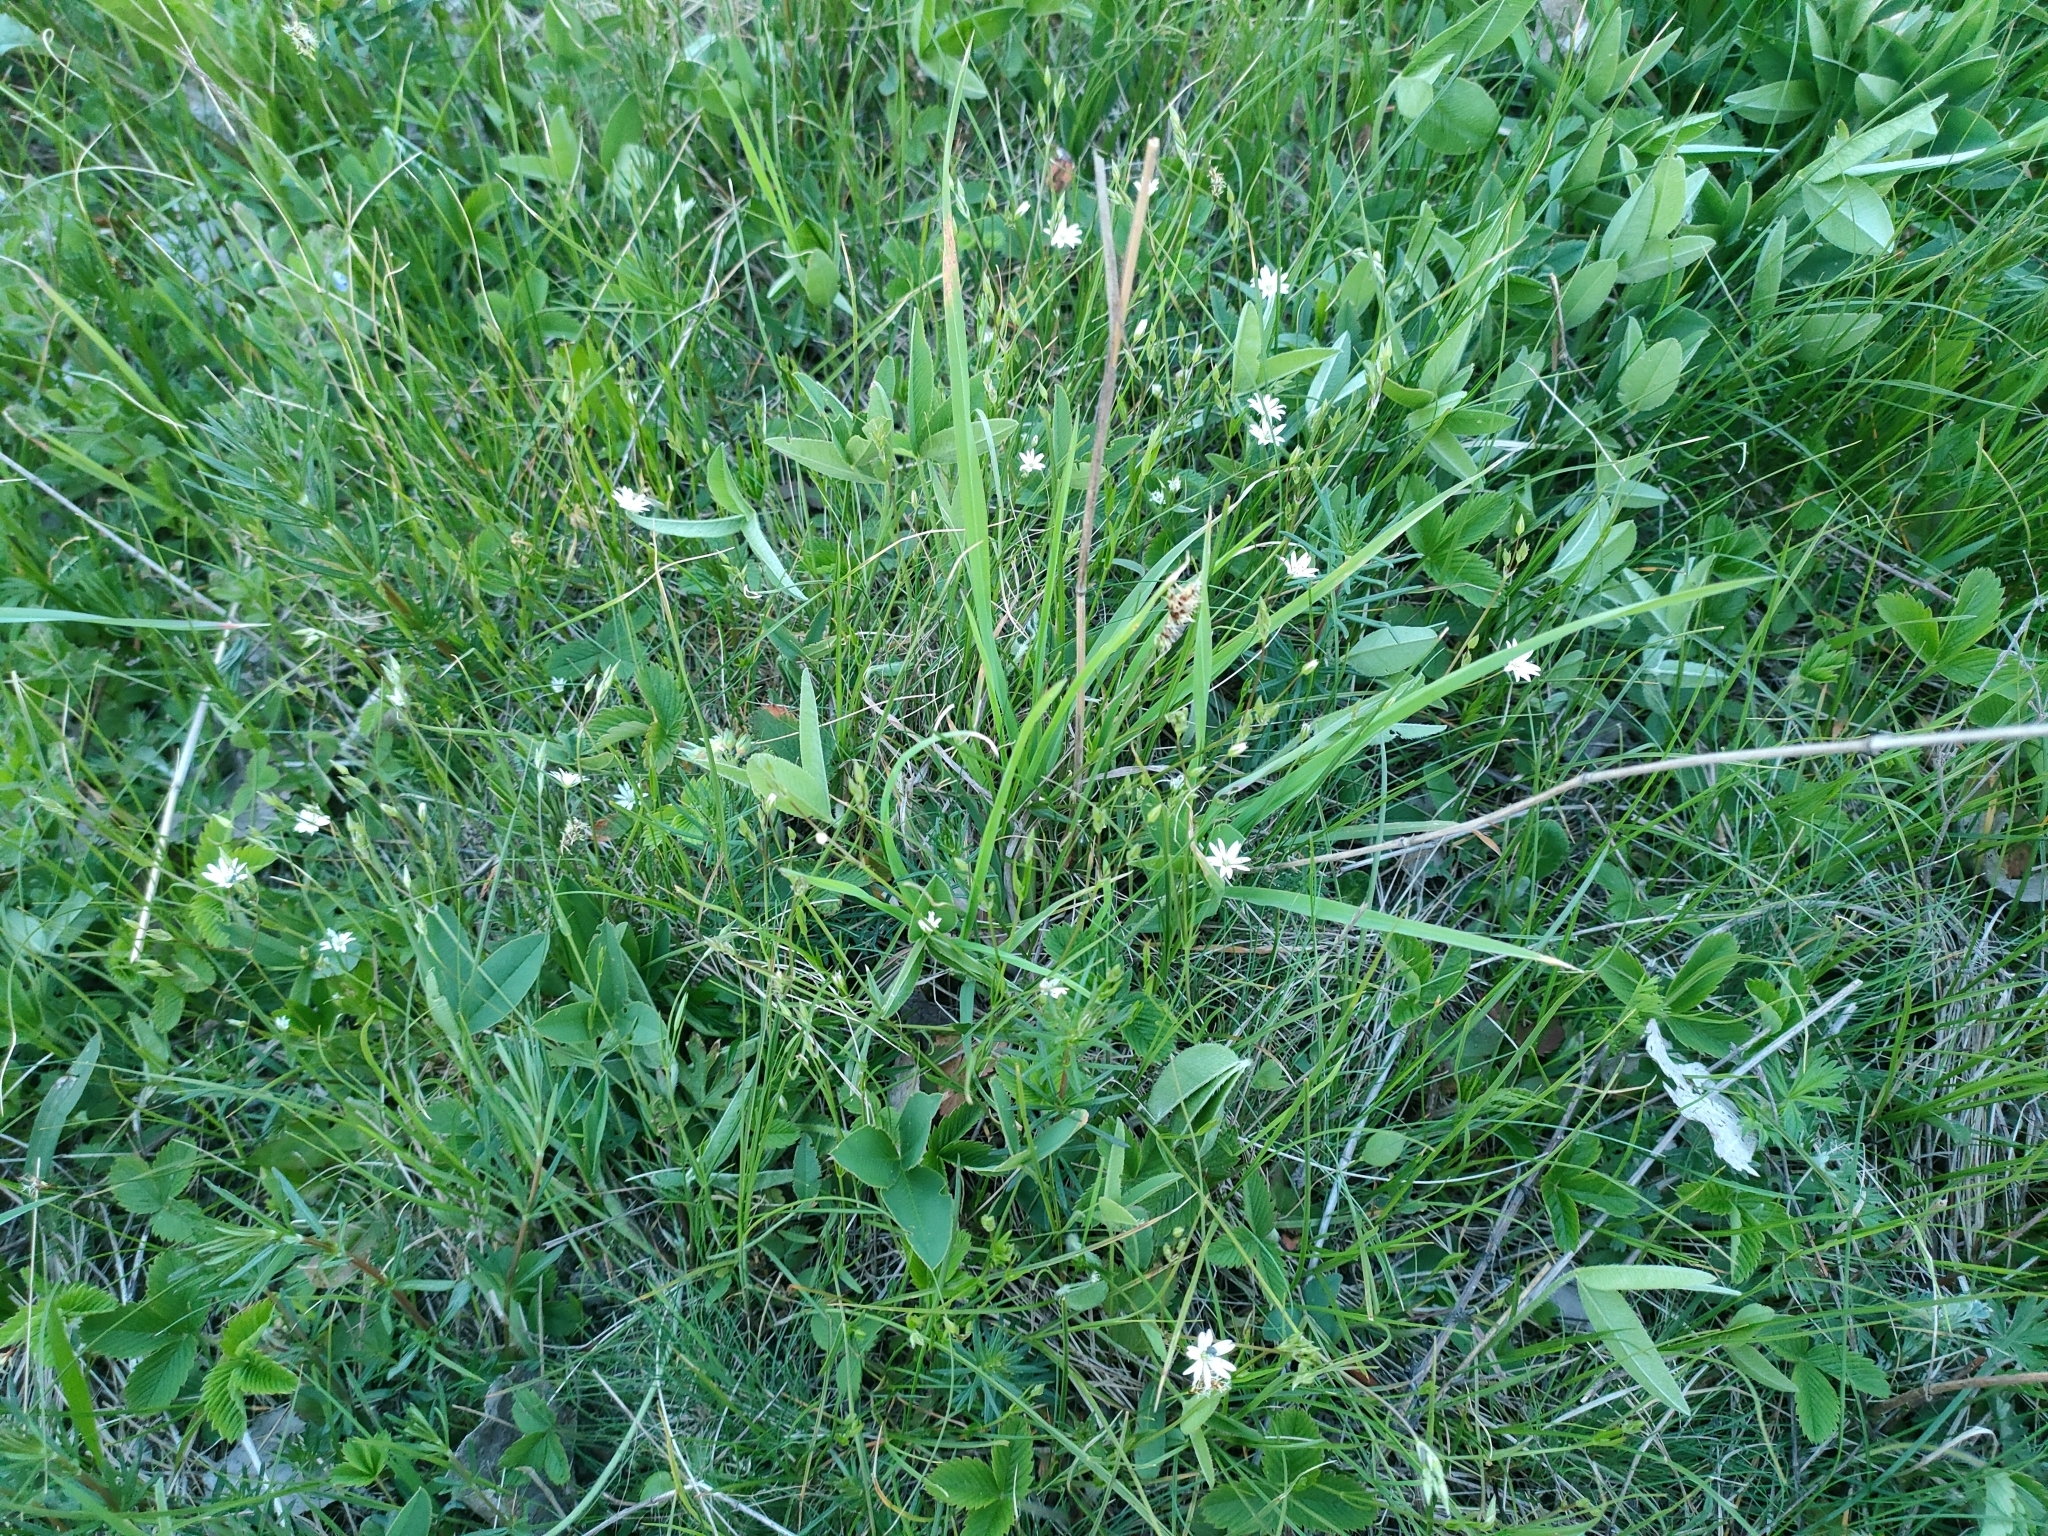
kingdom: Plantae
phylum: Tracheophyta
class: Magnoliopsida
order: Caryophyllales
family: Caryophyllaceae
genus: Stellaria
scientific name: Stellaria graminea
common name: Grass-like starwort
